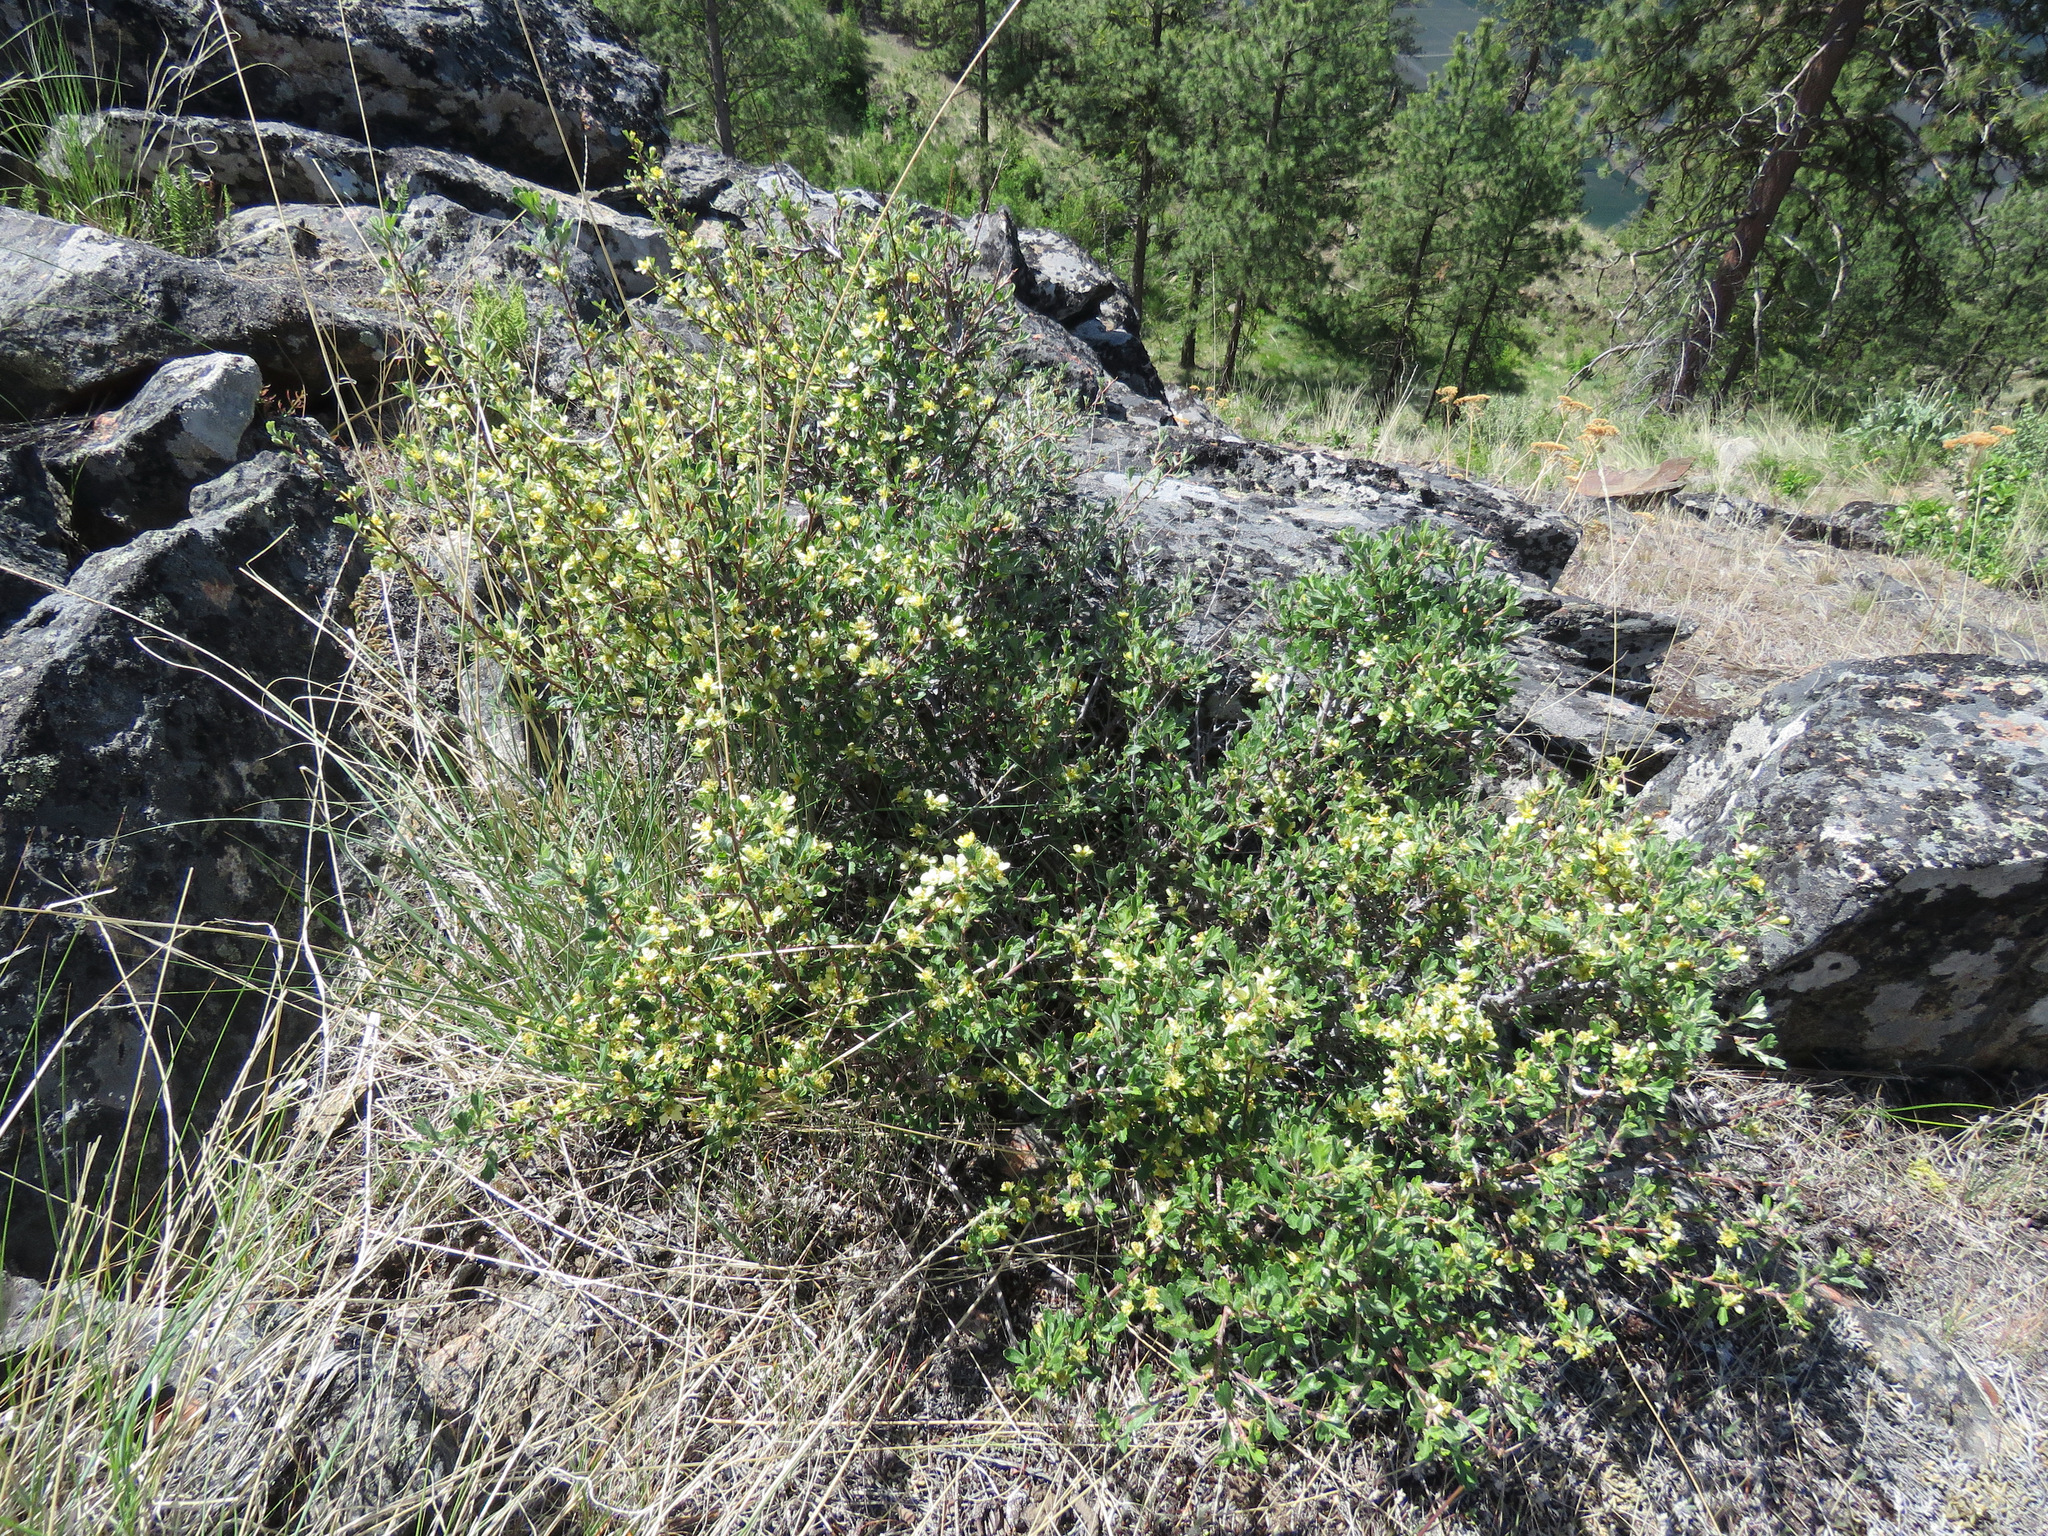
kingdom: Plantae
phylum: Tracheophyta
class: Magnoliopsida
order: Rosales
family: Rosaceae
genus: Purshia
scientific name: Purshia tridentata
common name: Antelope bitterbrush
